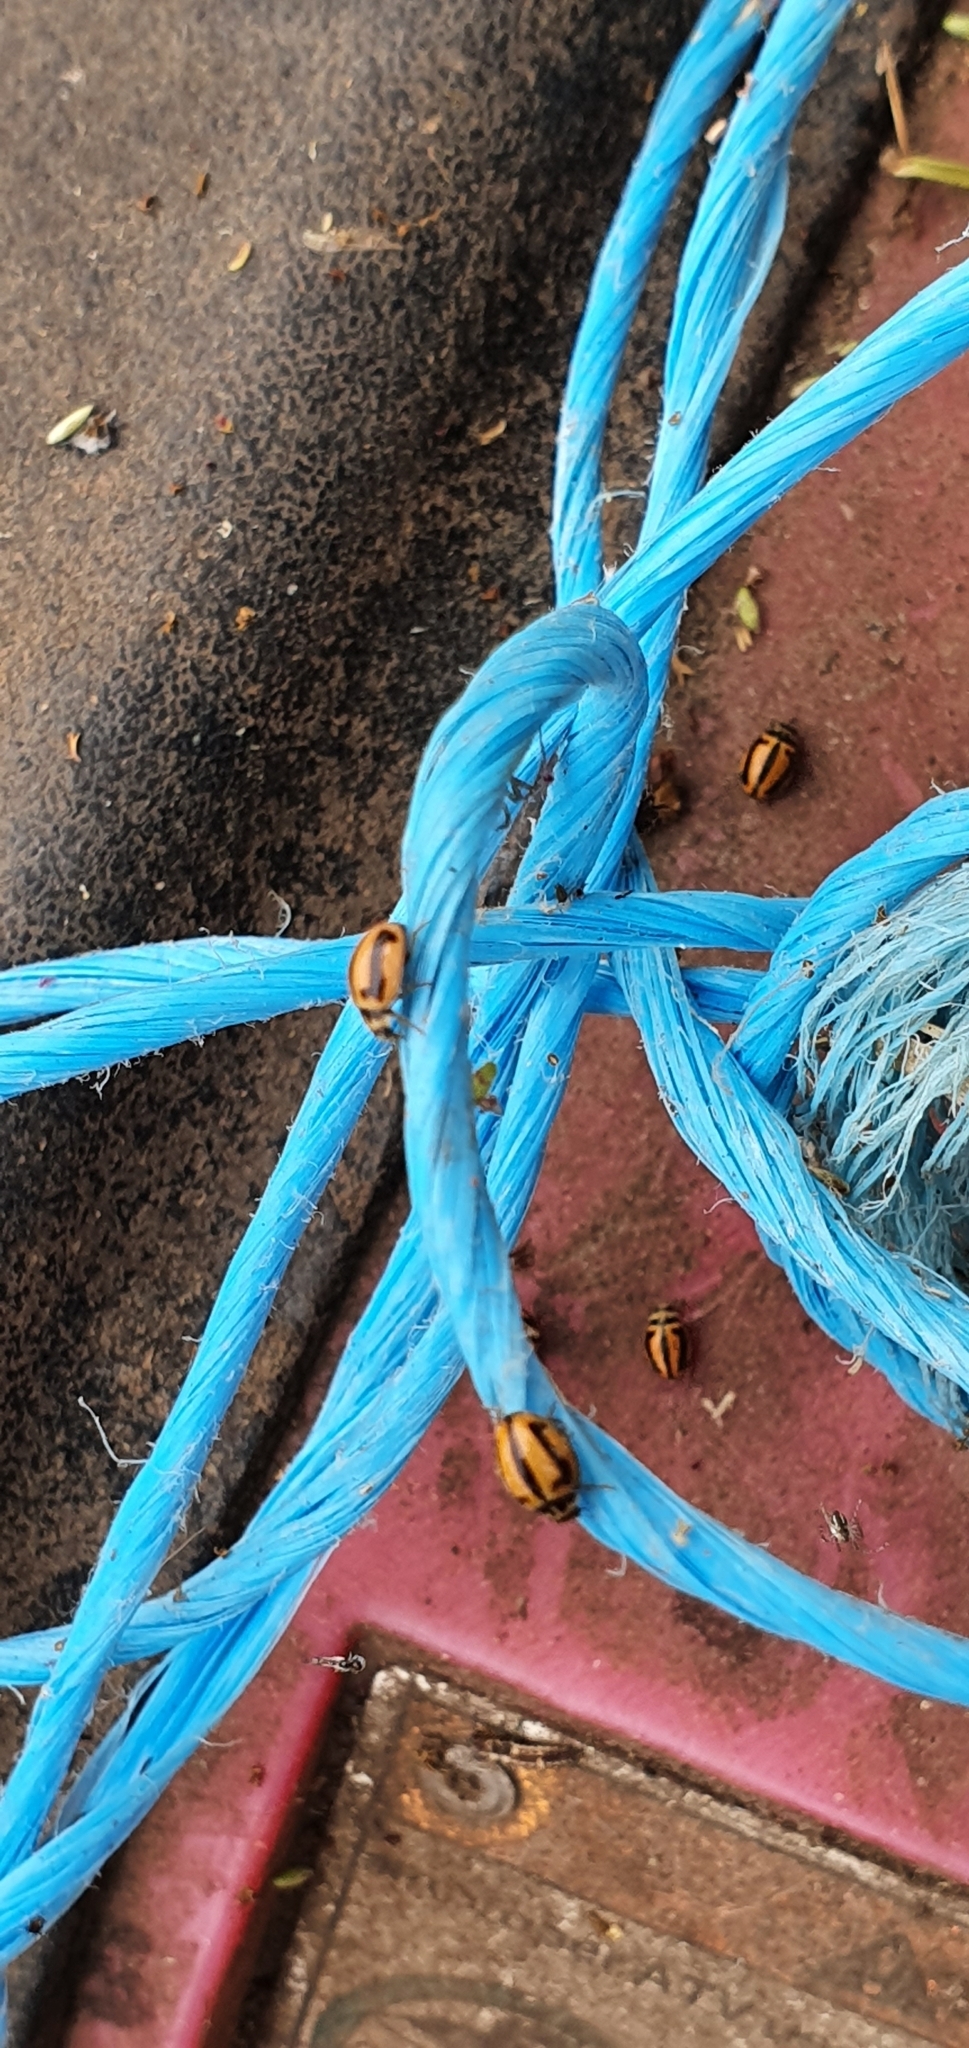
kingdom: Animalia
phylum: Arthropoda
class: Insecta
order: Coleoptera
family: Coccinellidae
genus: Micraspis
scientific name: Micraspis frenata
